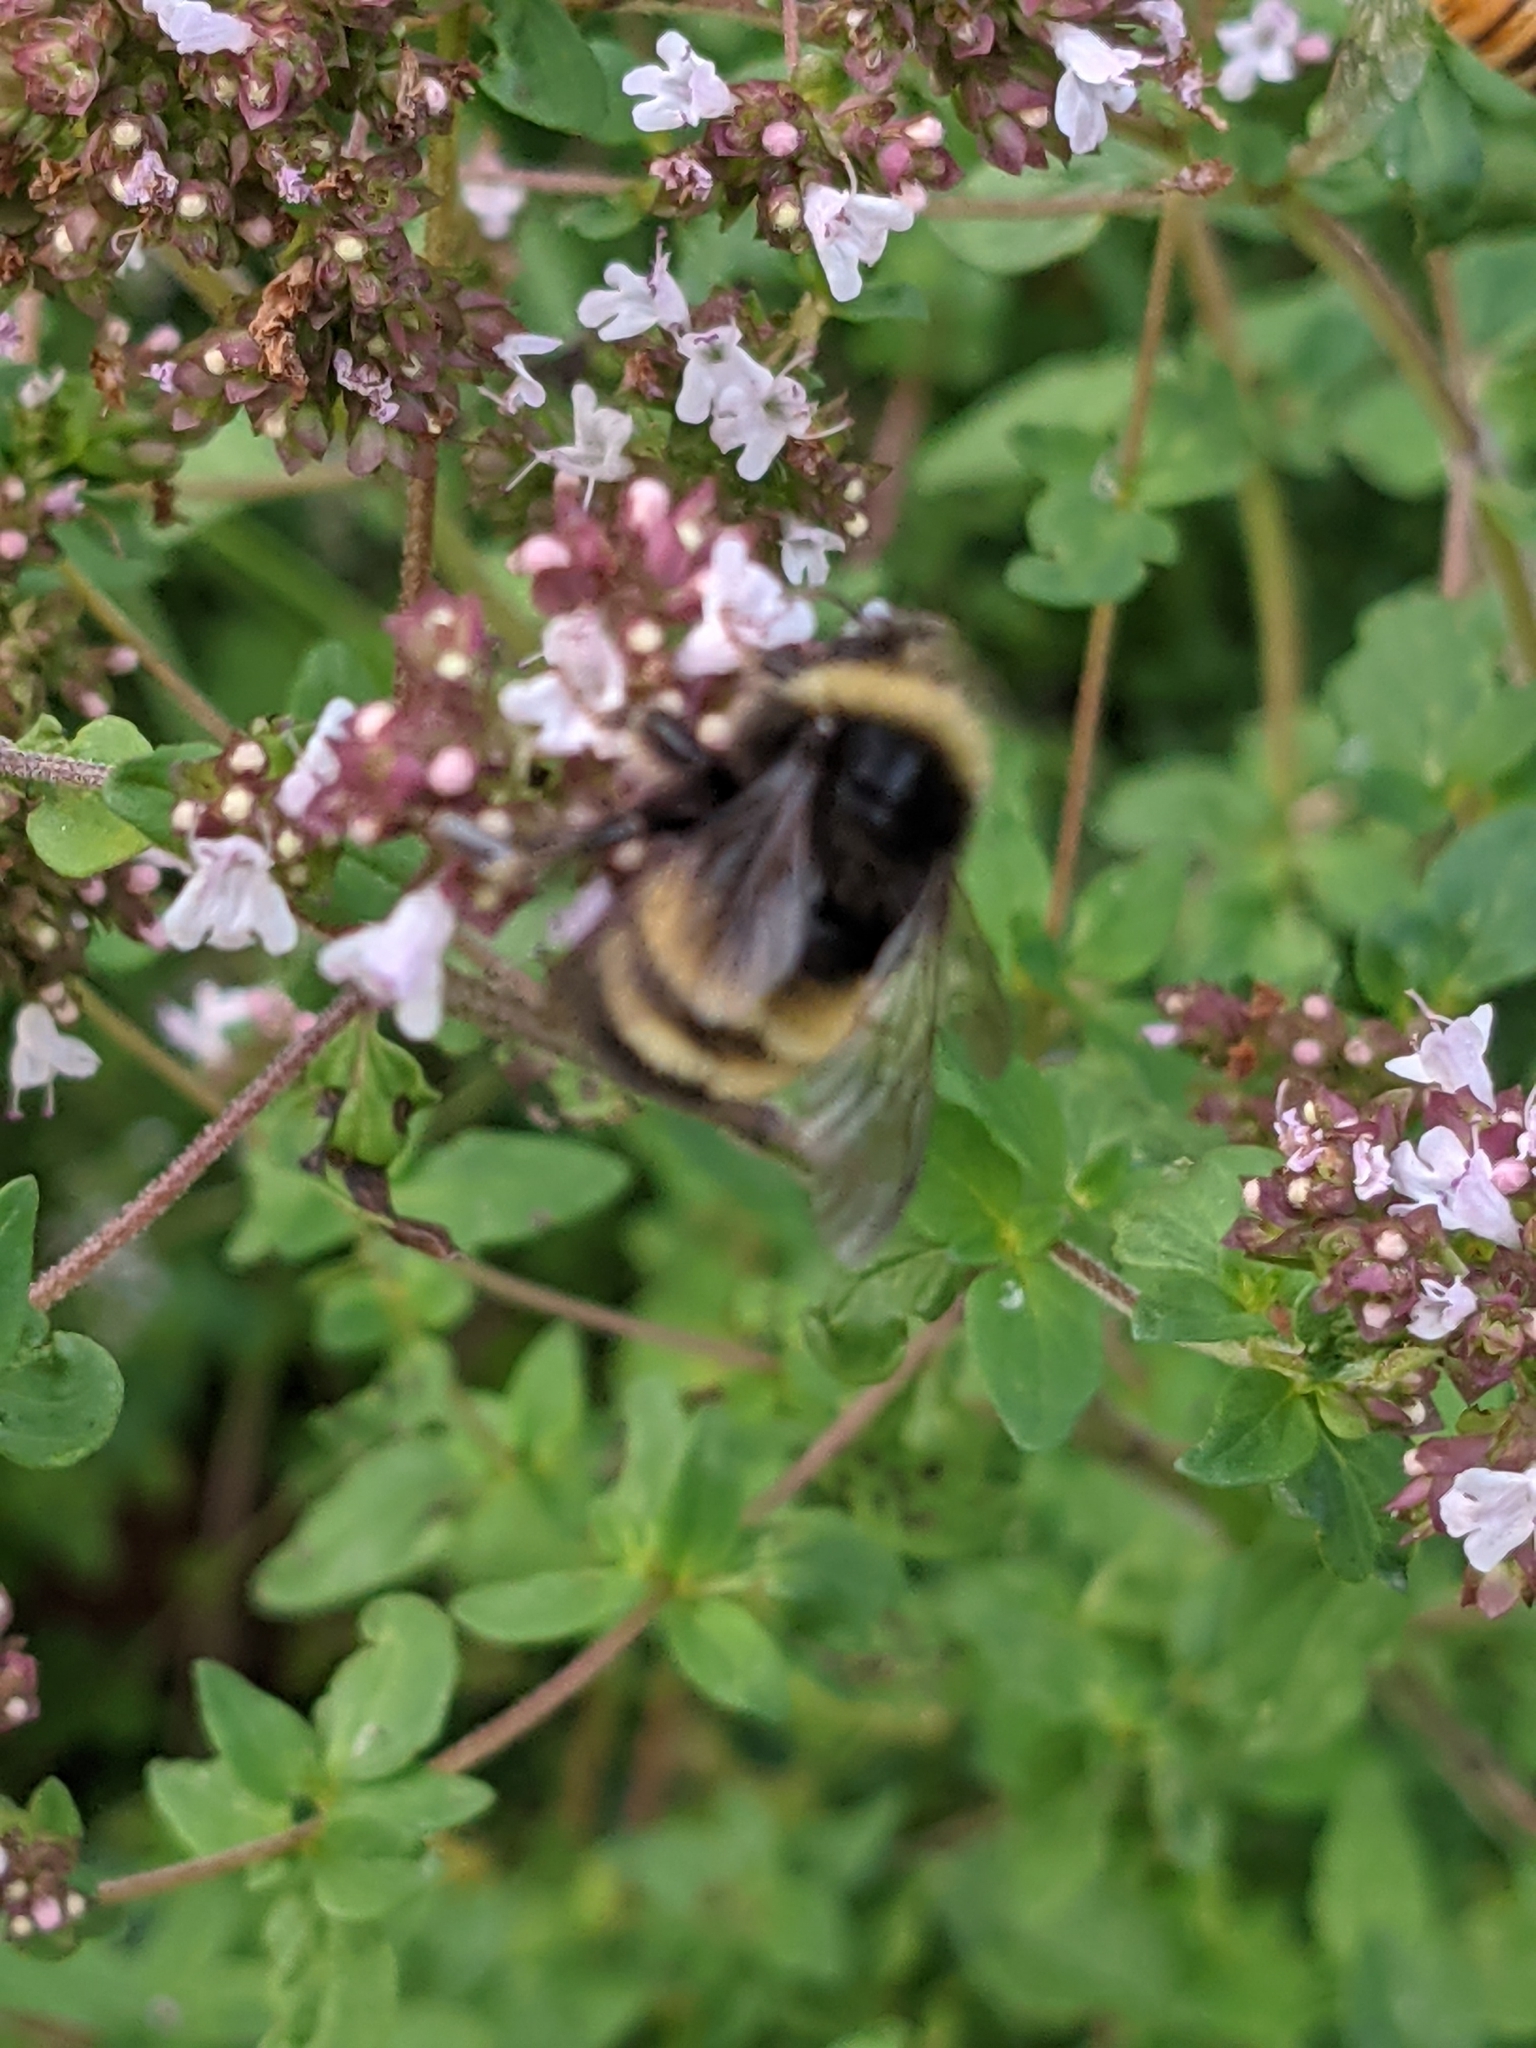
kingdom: Animalia
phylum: Arthropoda
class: Insecta
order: Hymenoptera
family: Apidae
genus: Bombus
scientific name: Bombus terricola
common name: Yellow-banded bumble bee
